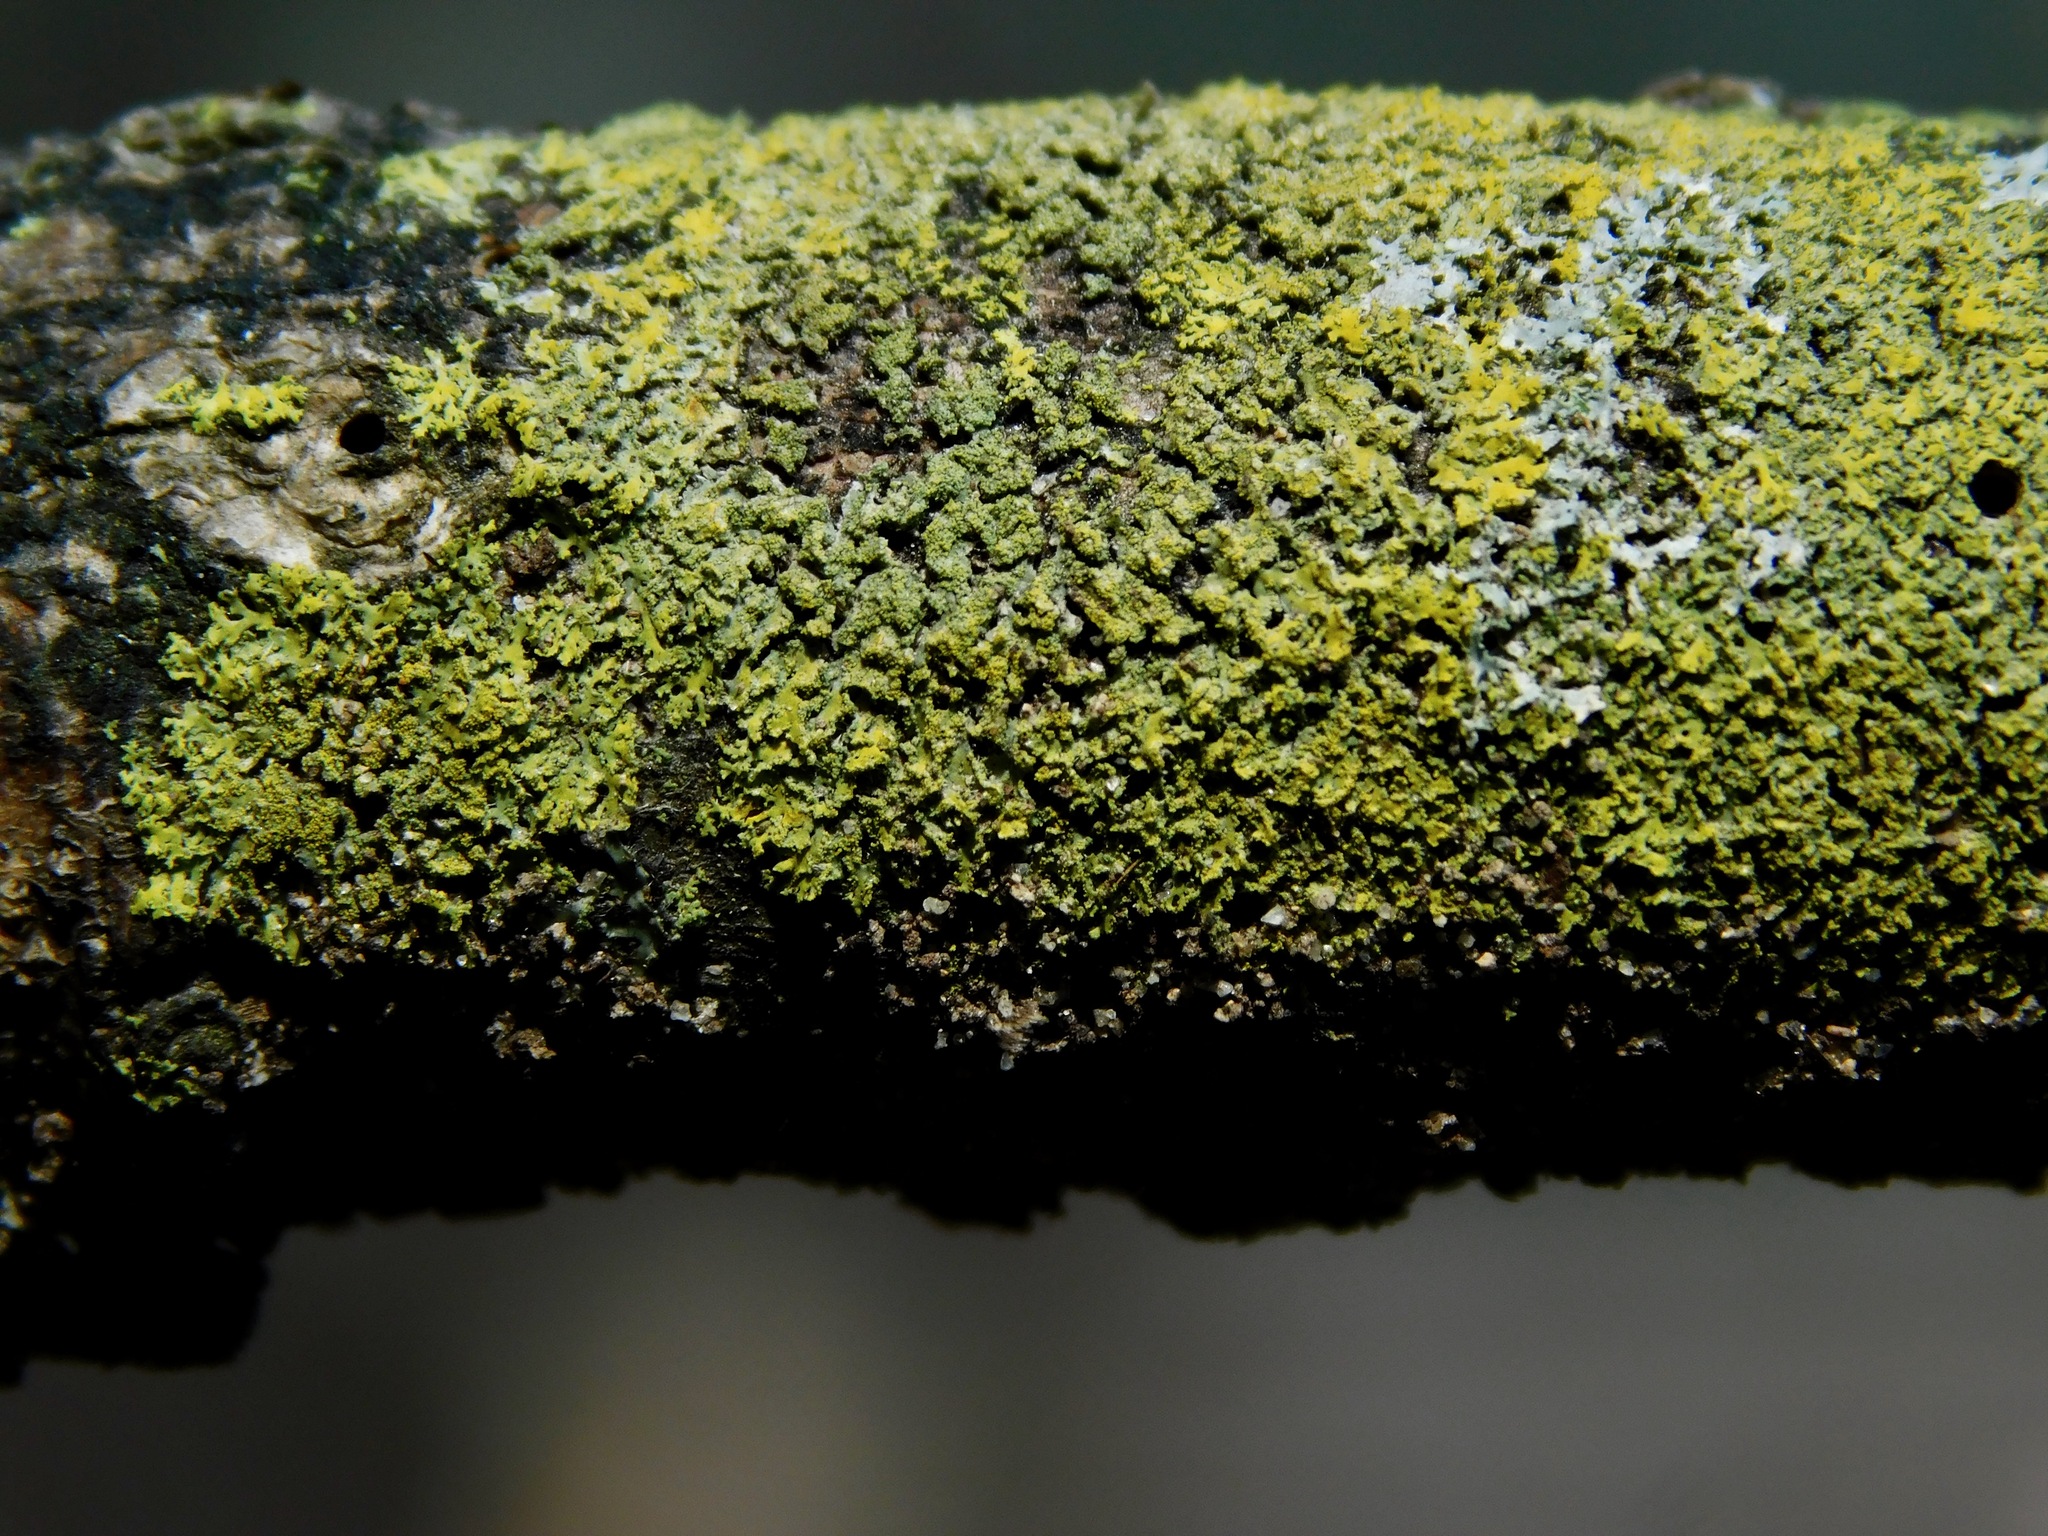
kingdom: Fungi
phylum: Ascomycota
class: Candelariomycetes
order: Candelariales
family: Candelariaceae
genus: Candelaria
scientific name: Candelaria concolor
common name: Candleflame lichen
